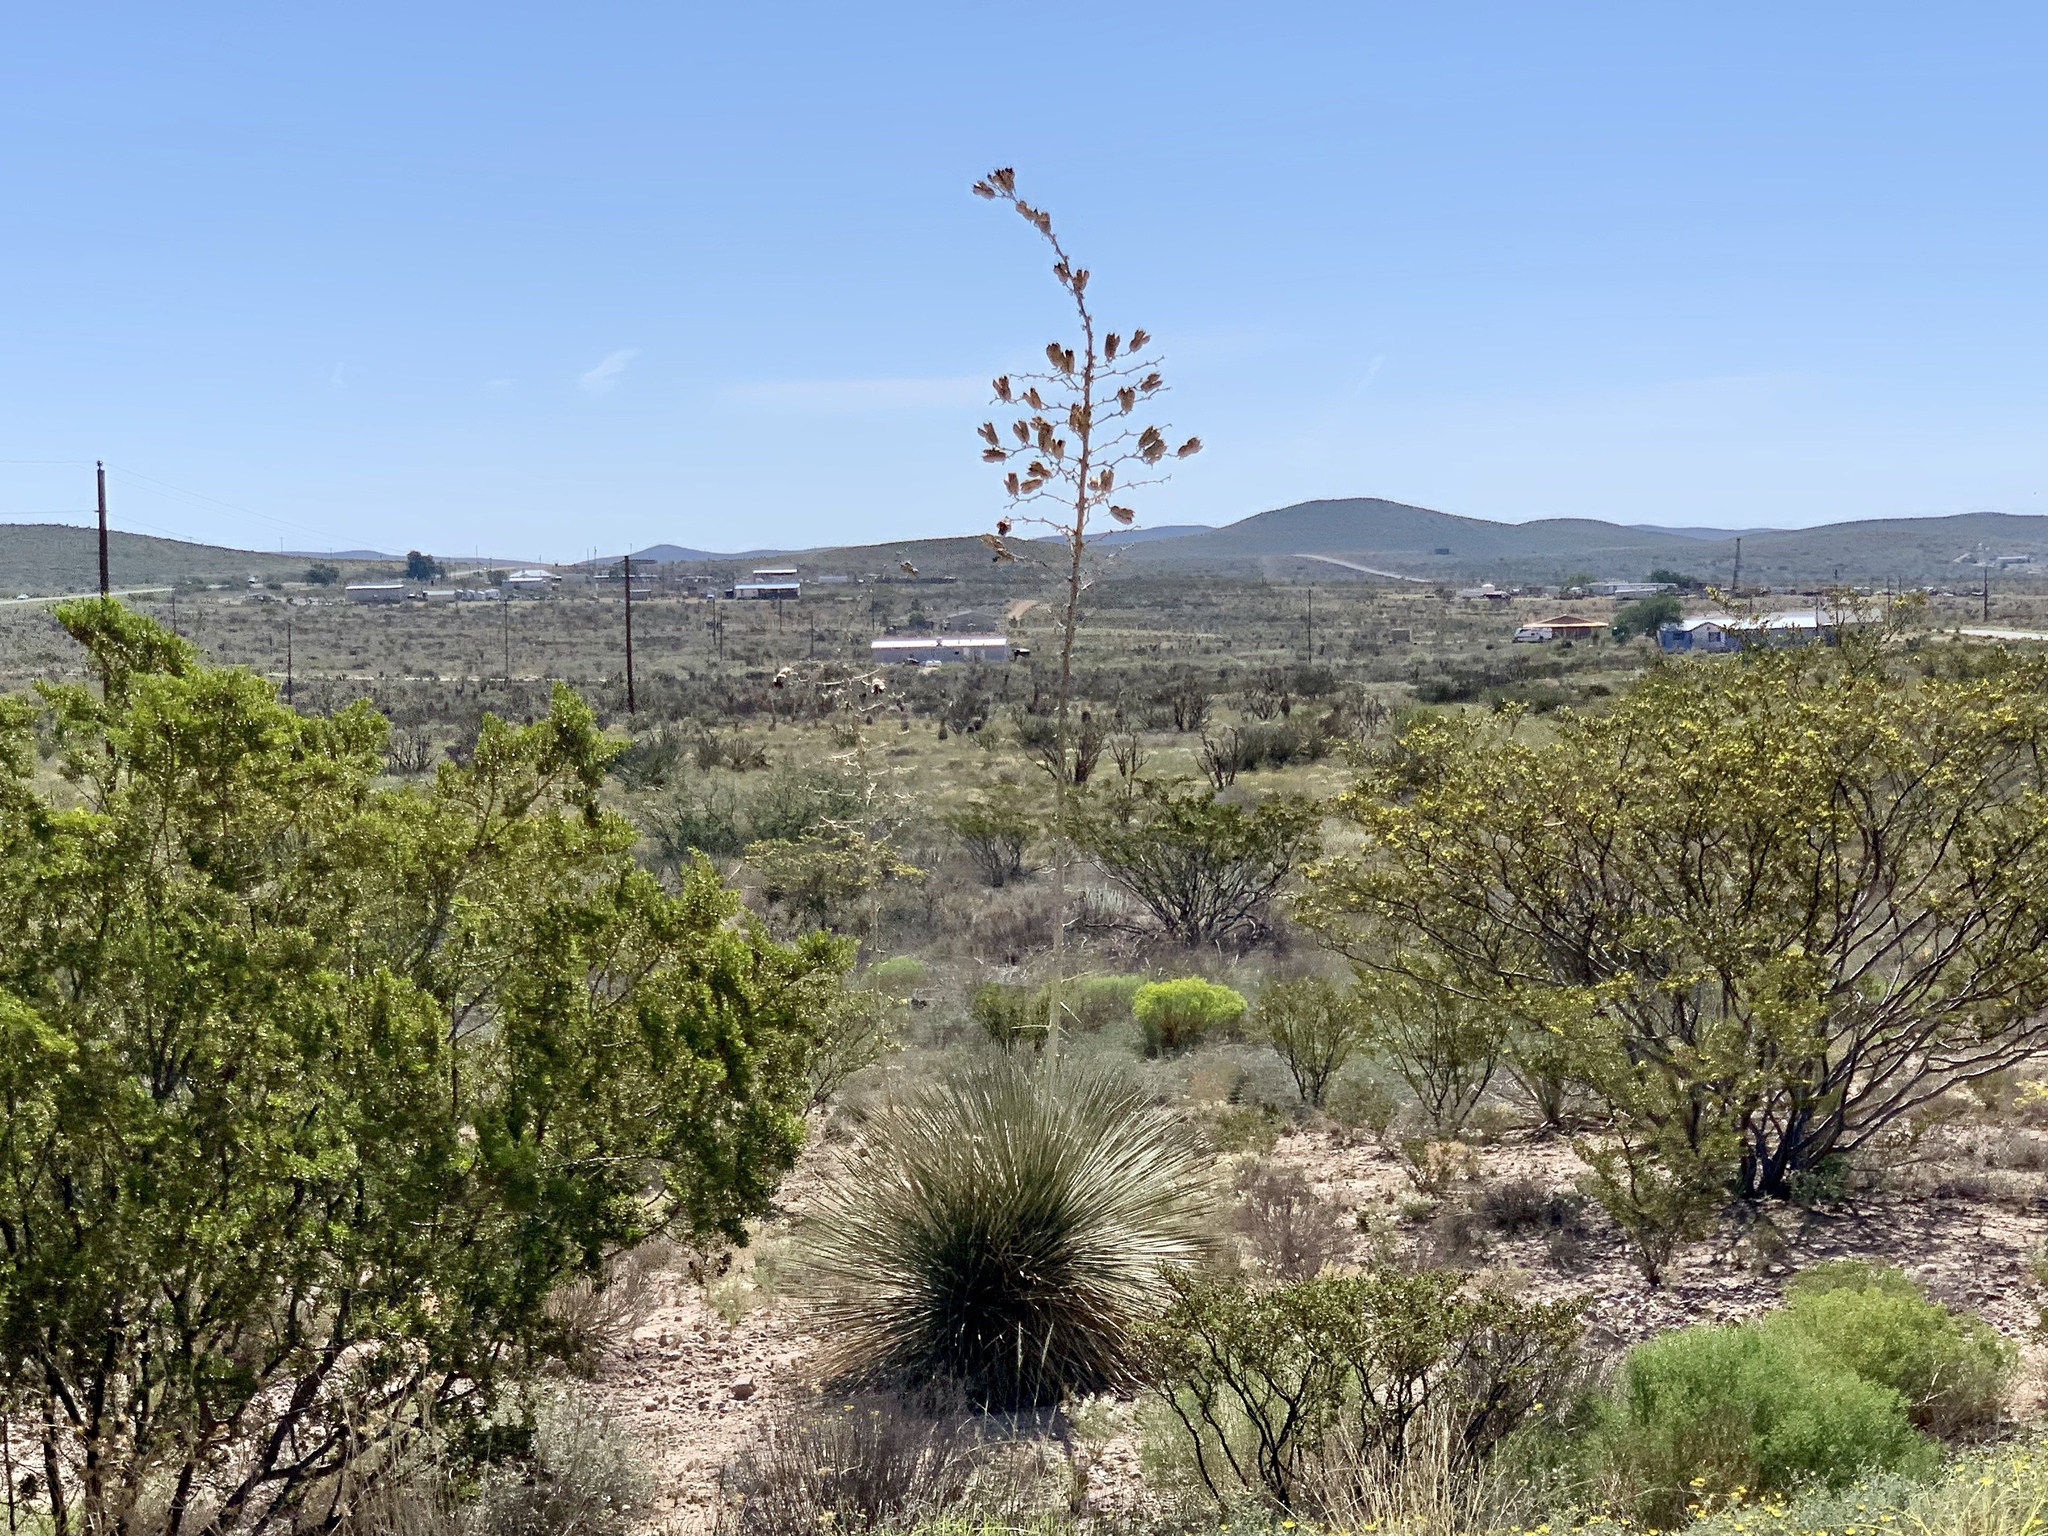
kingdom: Plantae
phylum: Tracheophyta
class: Liliopsida
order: Asparagales
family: Asparagaceae
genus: Yucca
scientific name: Yucca elata
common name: Palmella
